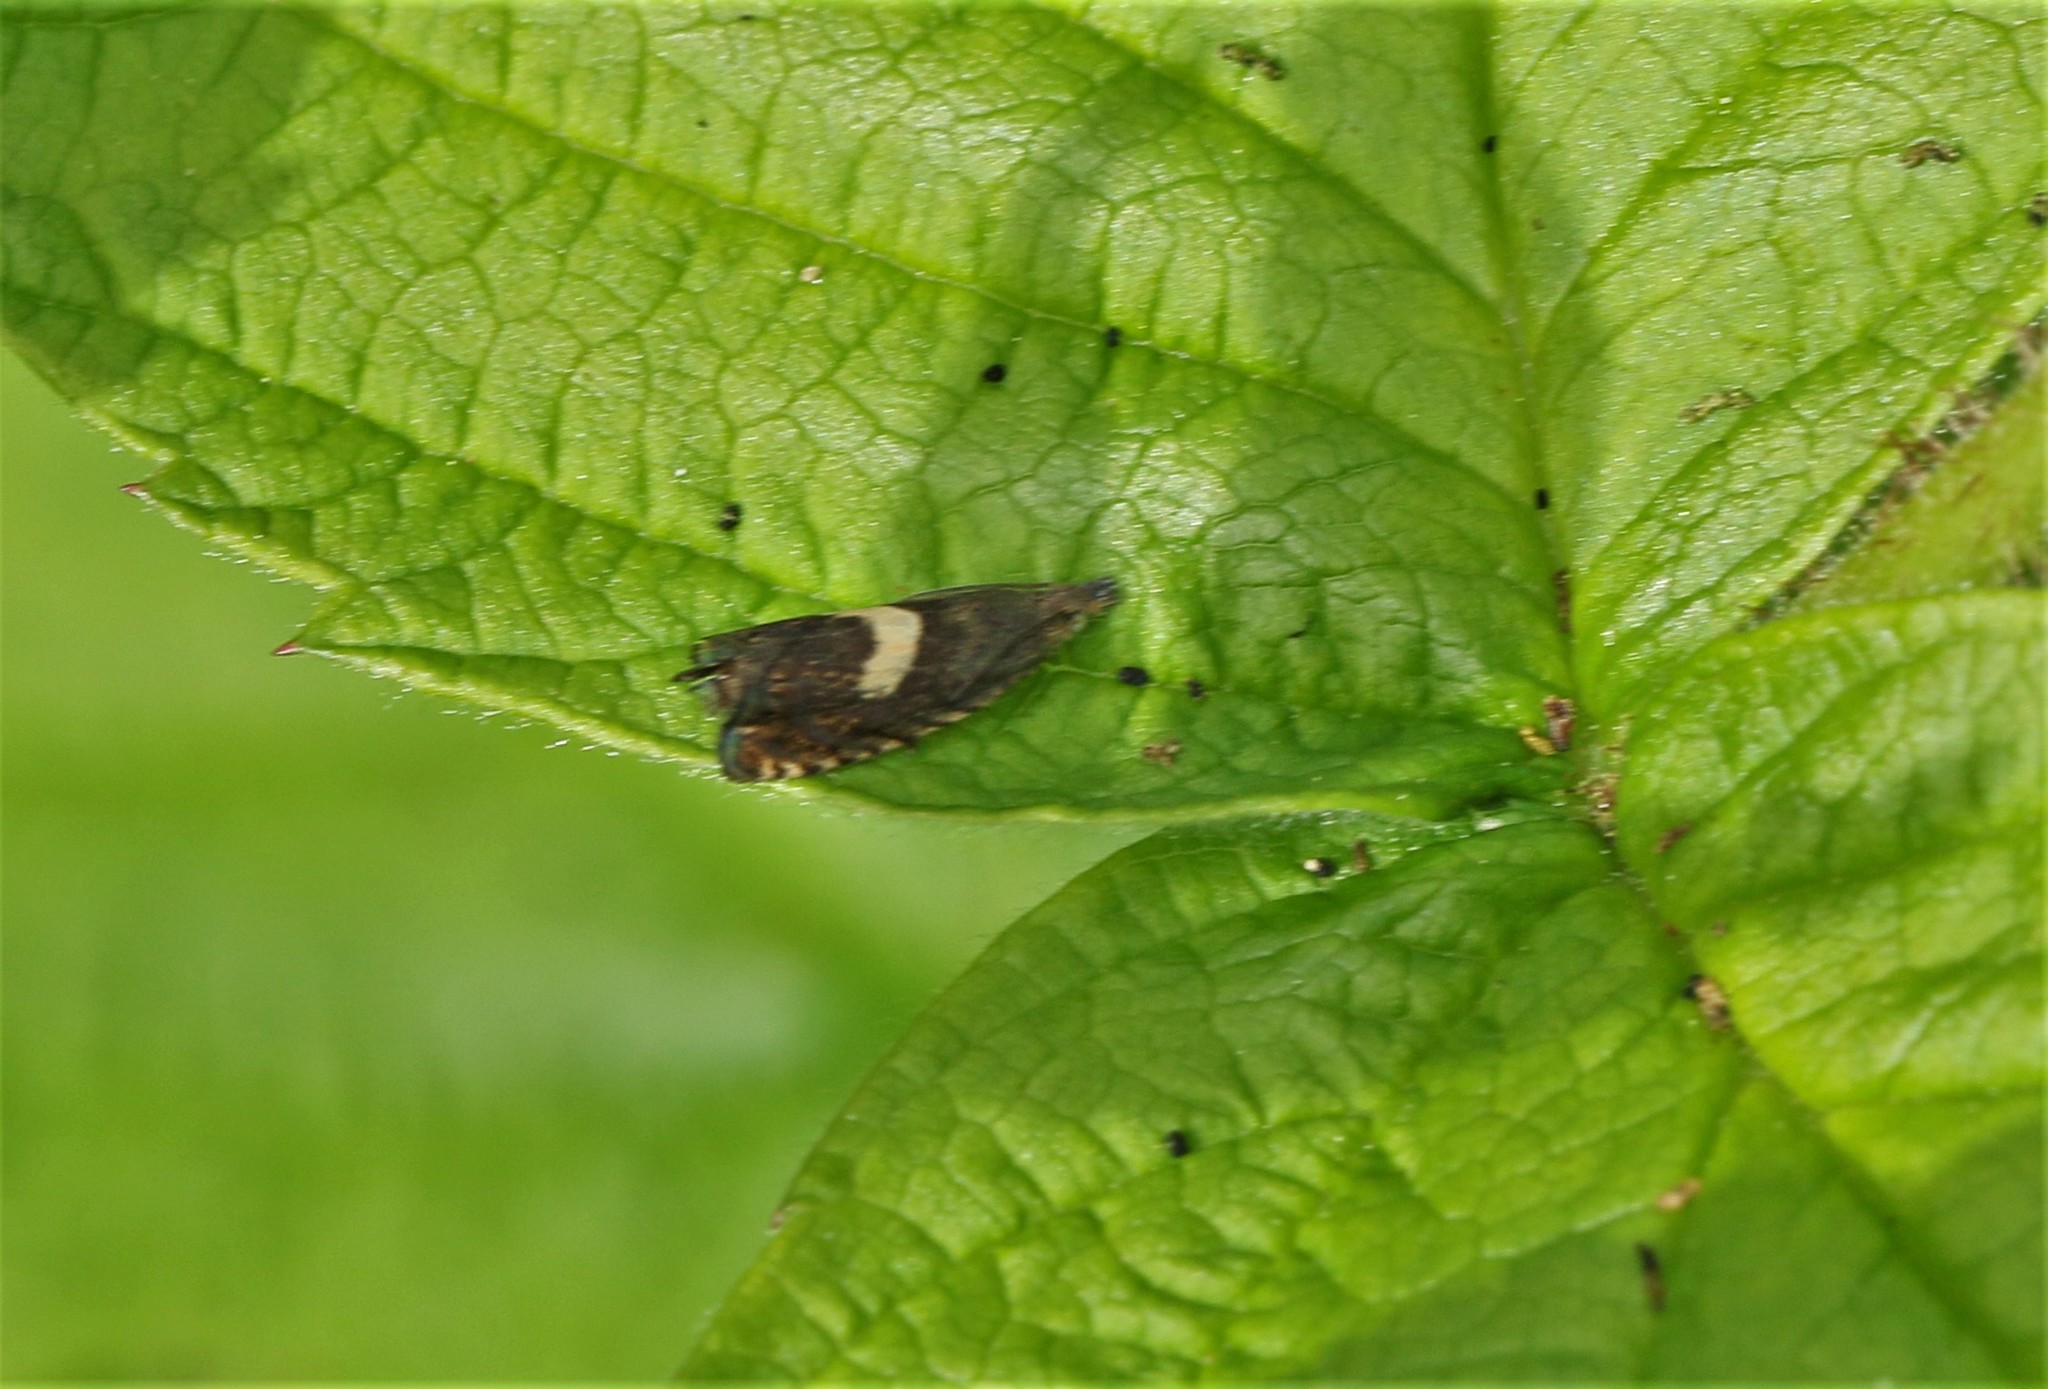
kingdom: Animalia
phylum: Arthropoda
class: Insecta
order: Lepidoptera
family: Tortricidae
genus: Dichrorampha
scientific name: Dichrorampha petiverella
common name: Common drill
